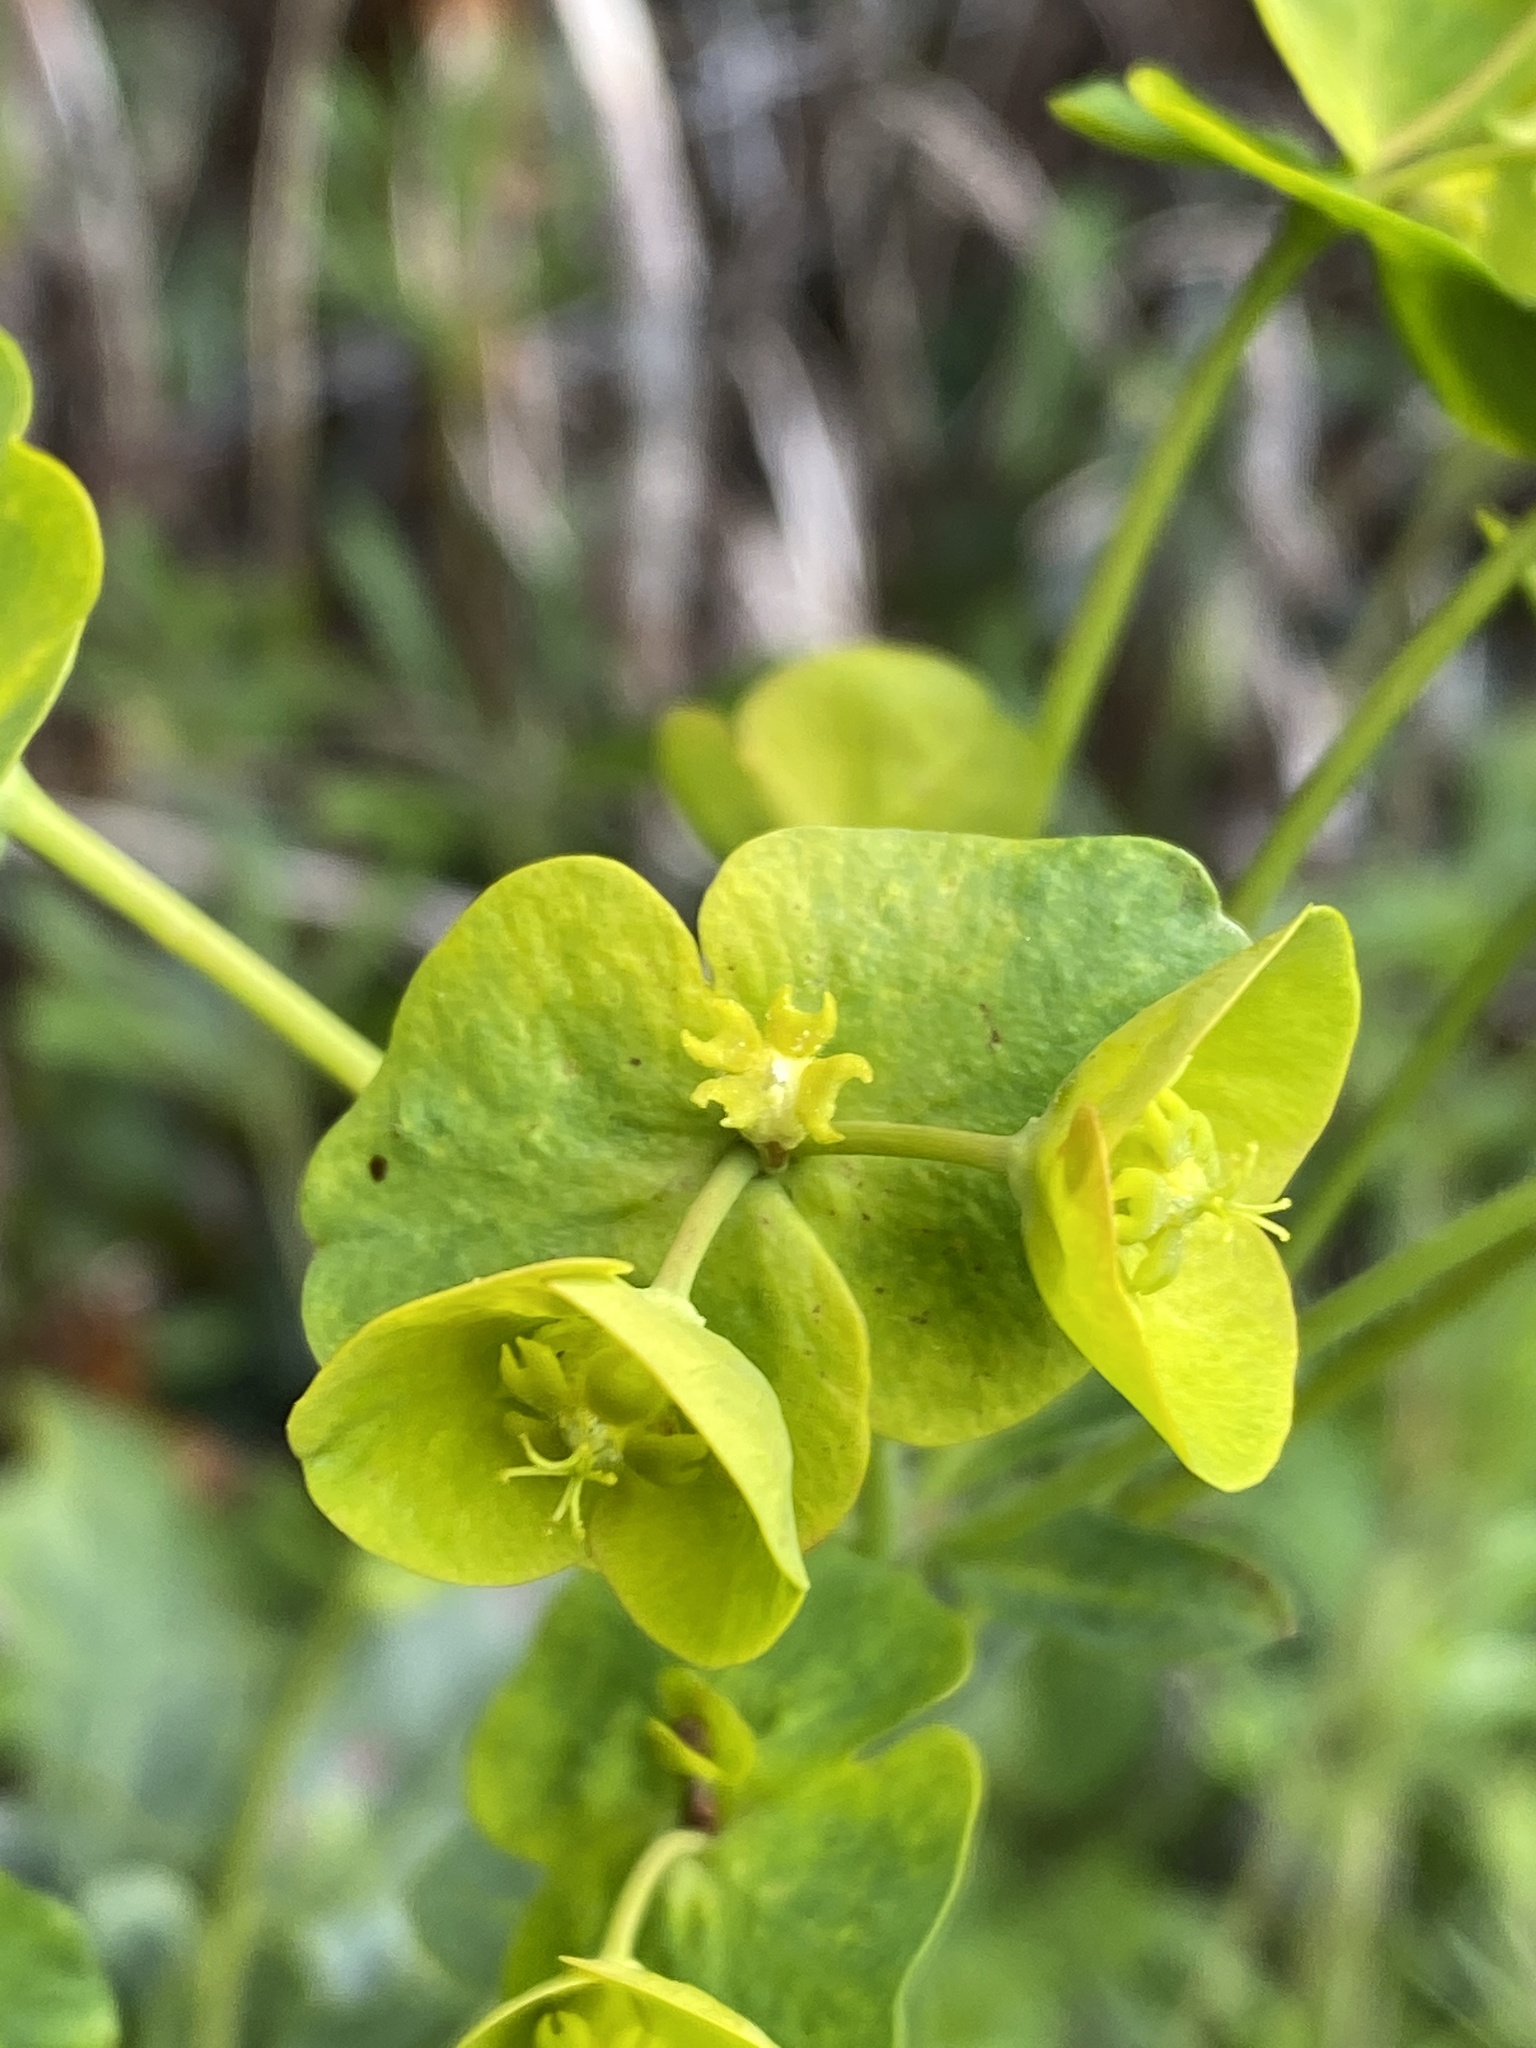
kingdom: Plantae
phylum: Tracheophyta
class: Magnoliopsida
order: Malpighiales
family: Euphorbiaceae
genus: Euphorbia
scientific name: Euphorbia amygdaloides
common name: Wood spurge
